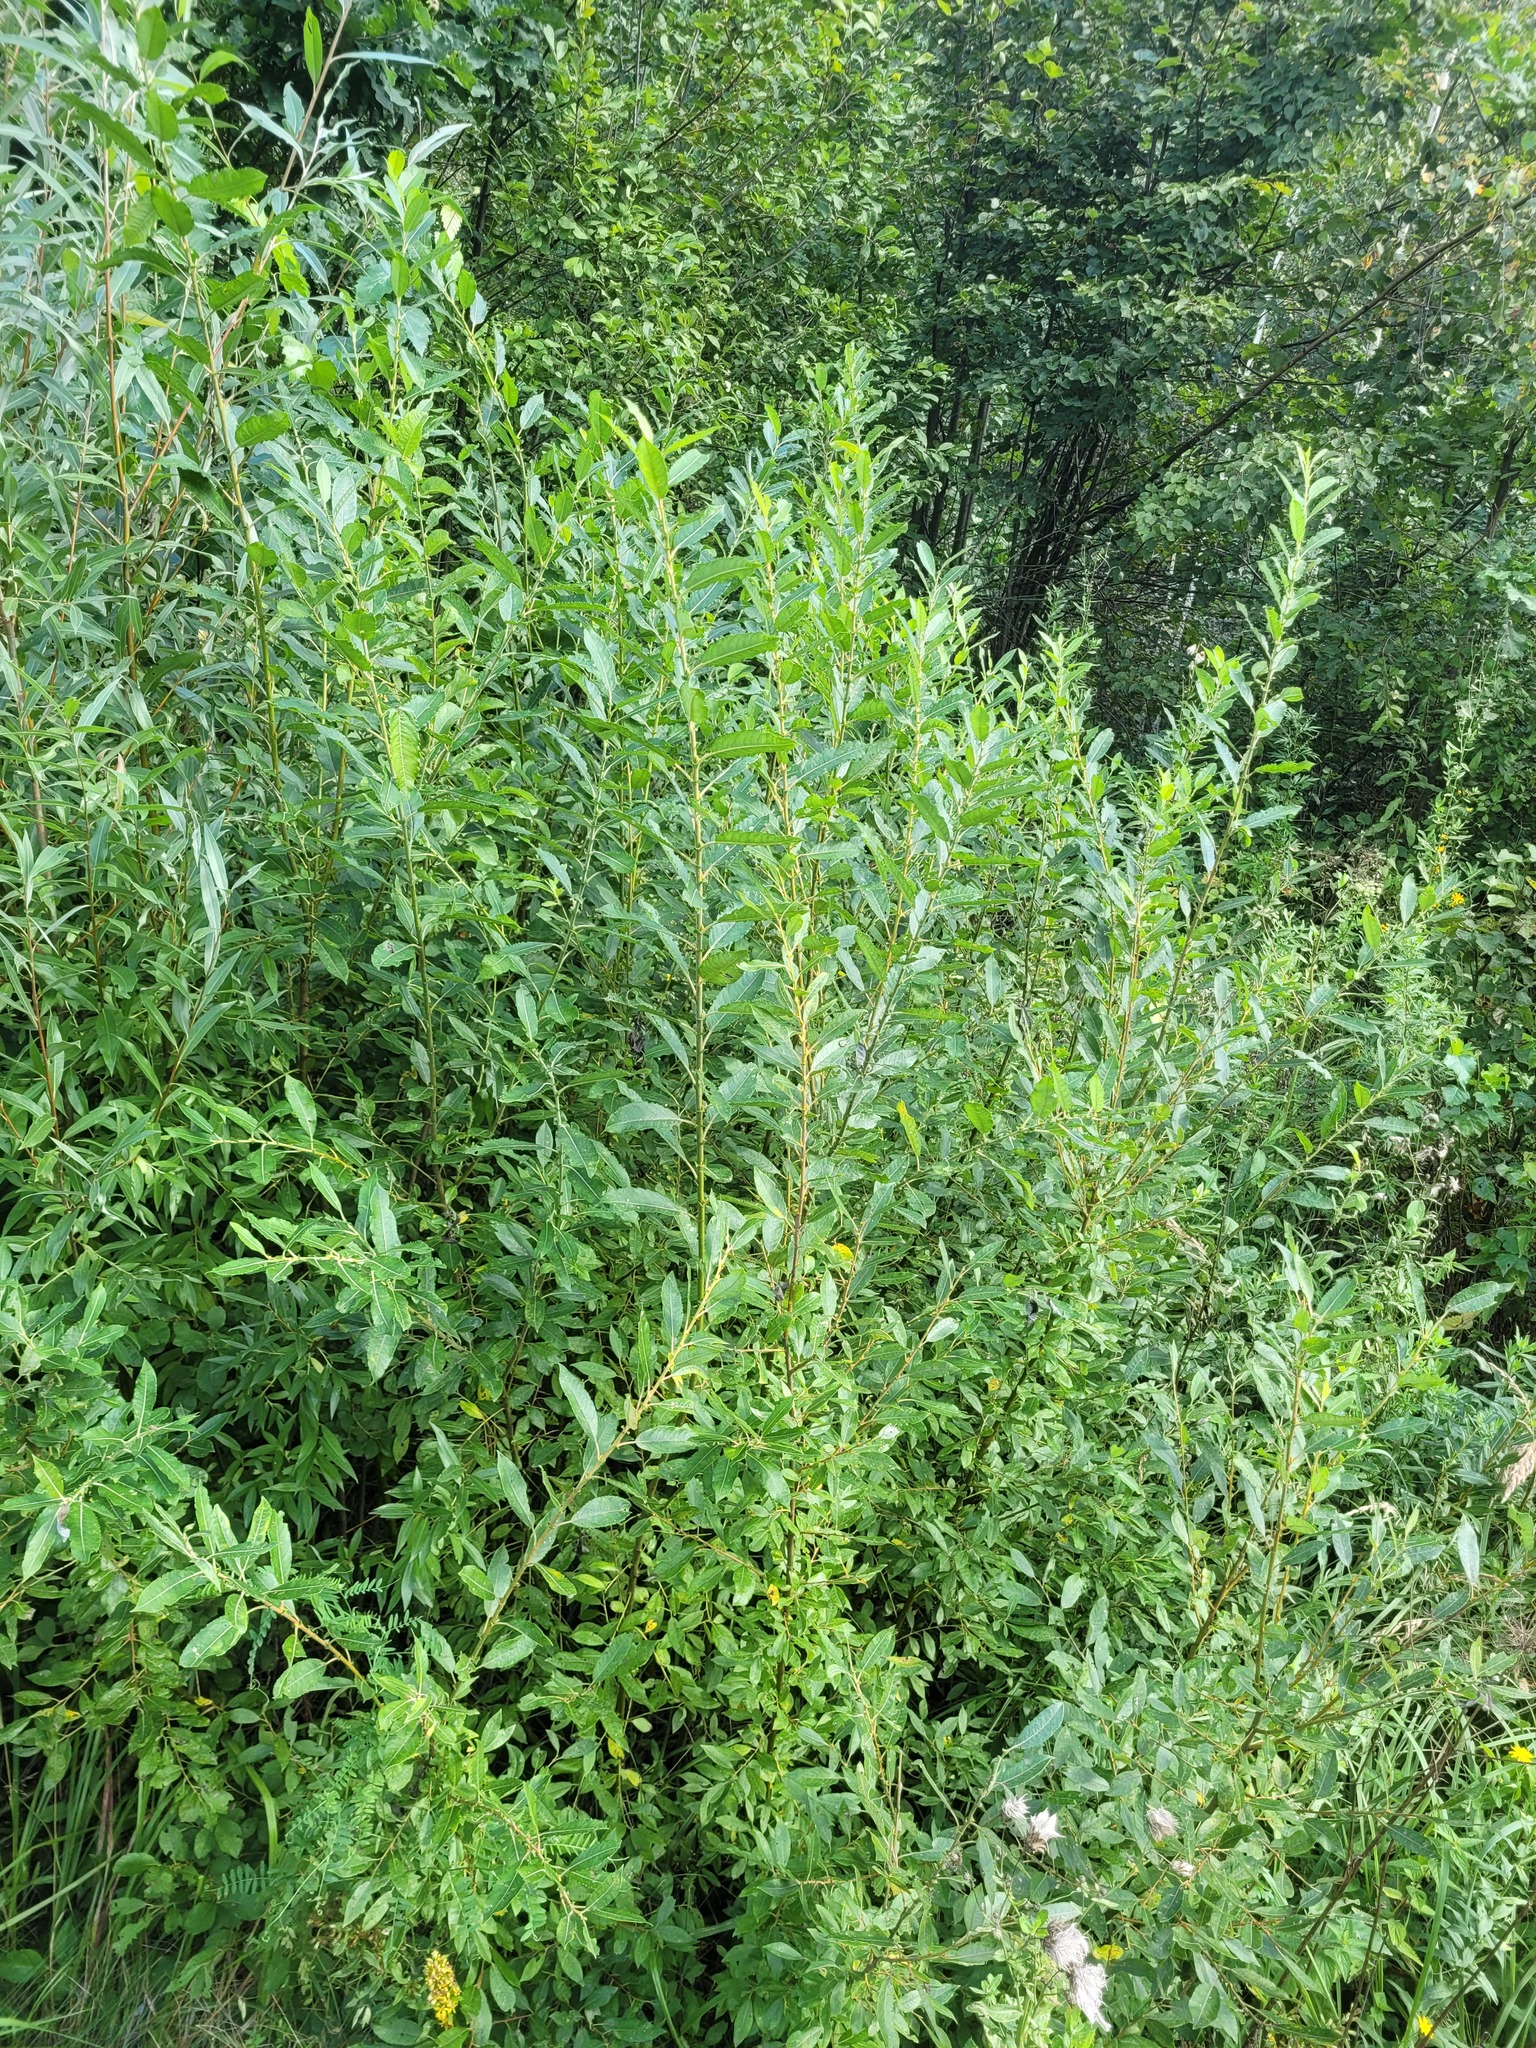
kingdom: Plantae
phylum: Tracheophyta
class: Magnoliopsida
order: Malpighiales
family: Salicaceae
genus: Salix
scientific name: Salix myrsinifolia
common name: Dark-leaved willow
